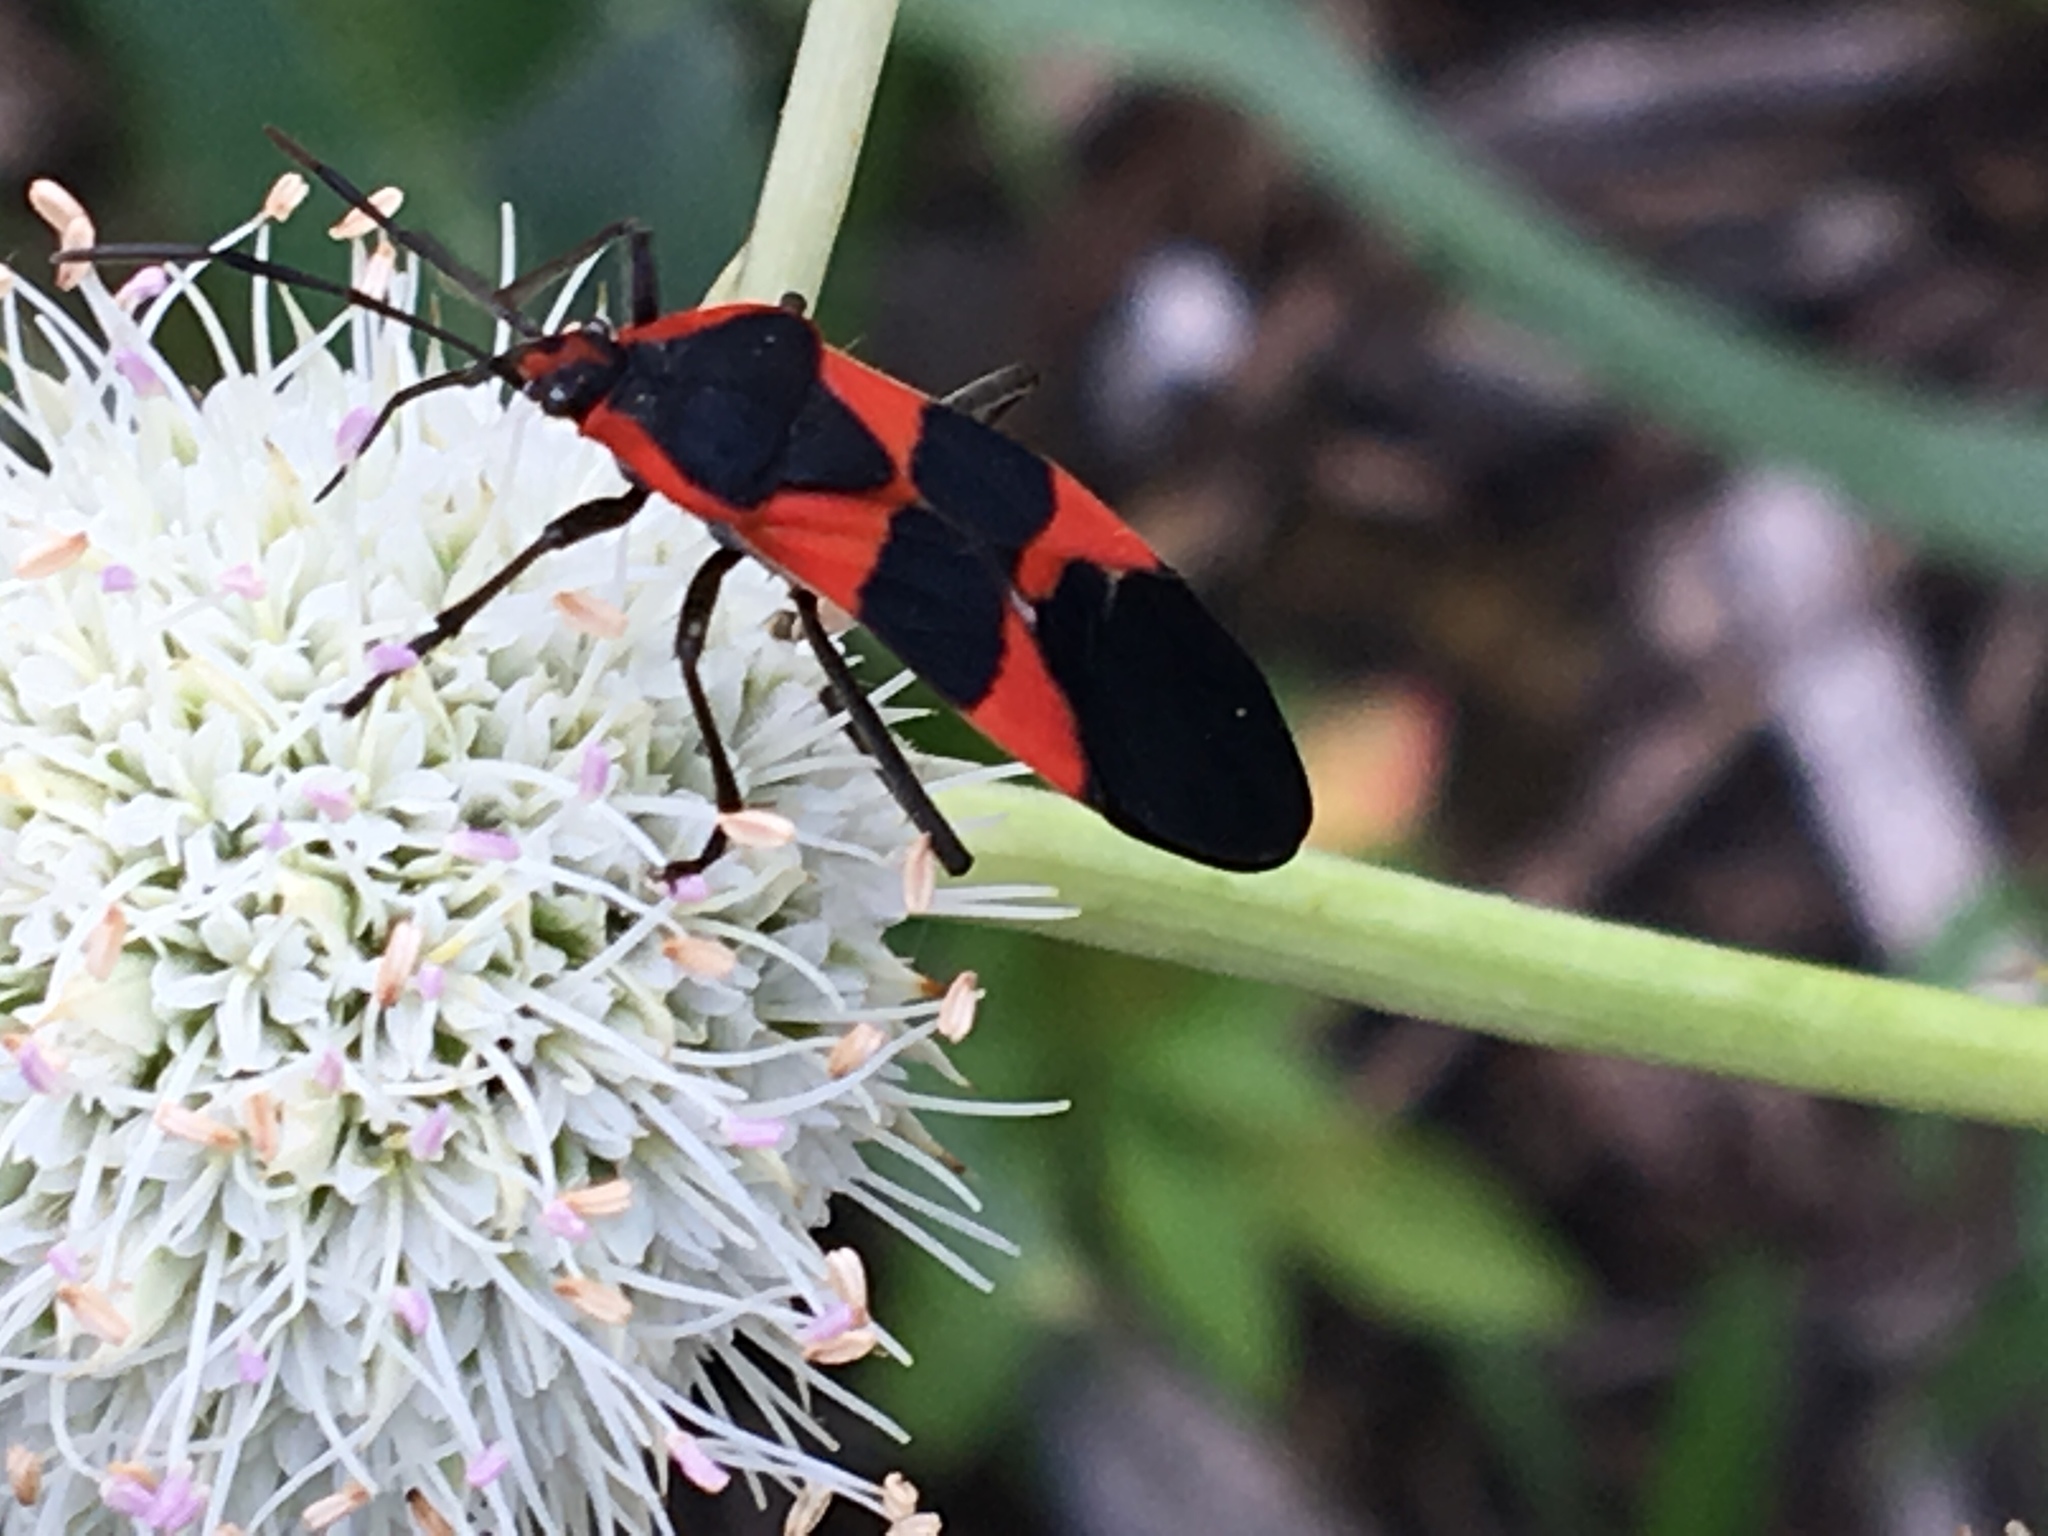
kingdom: Animalia
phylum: Arthropoda
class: Insecta
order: Hemiptera
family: Lygaeidae
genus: Oncopeltus
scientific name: Oncopeltus fasciatus
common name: Large milkweed bug
